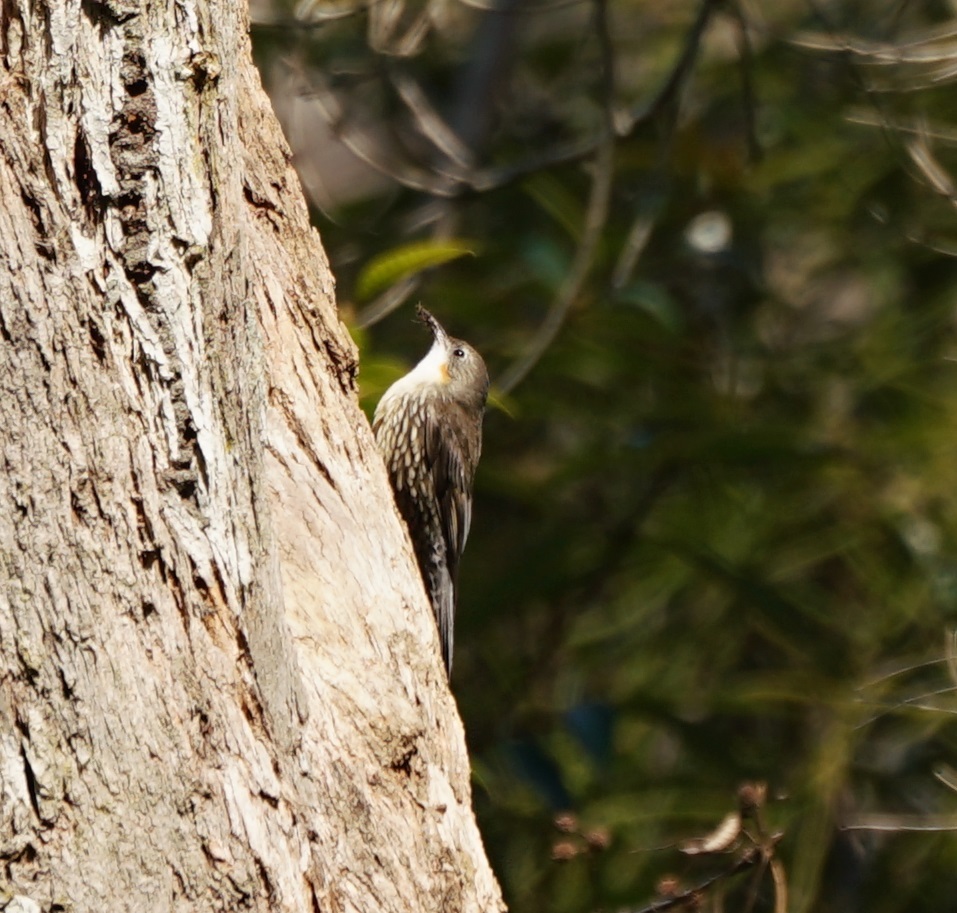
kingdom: Animalia
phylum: Chordata
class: Aves
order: Passeriformes
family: Climacteridae
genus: Cormobates
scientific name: Cormobates leucophaea
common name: White-throated treecreeper
